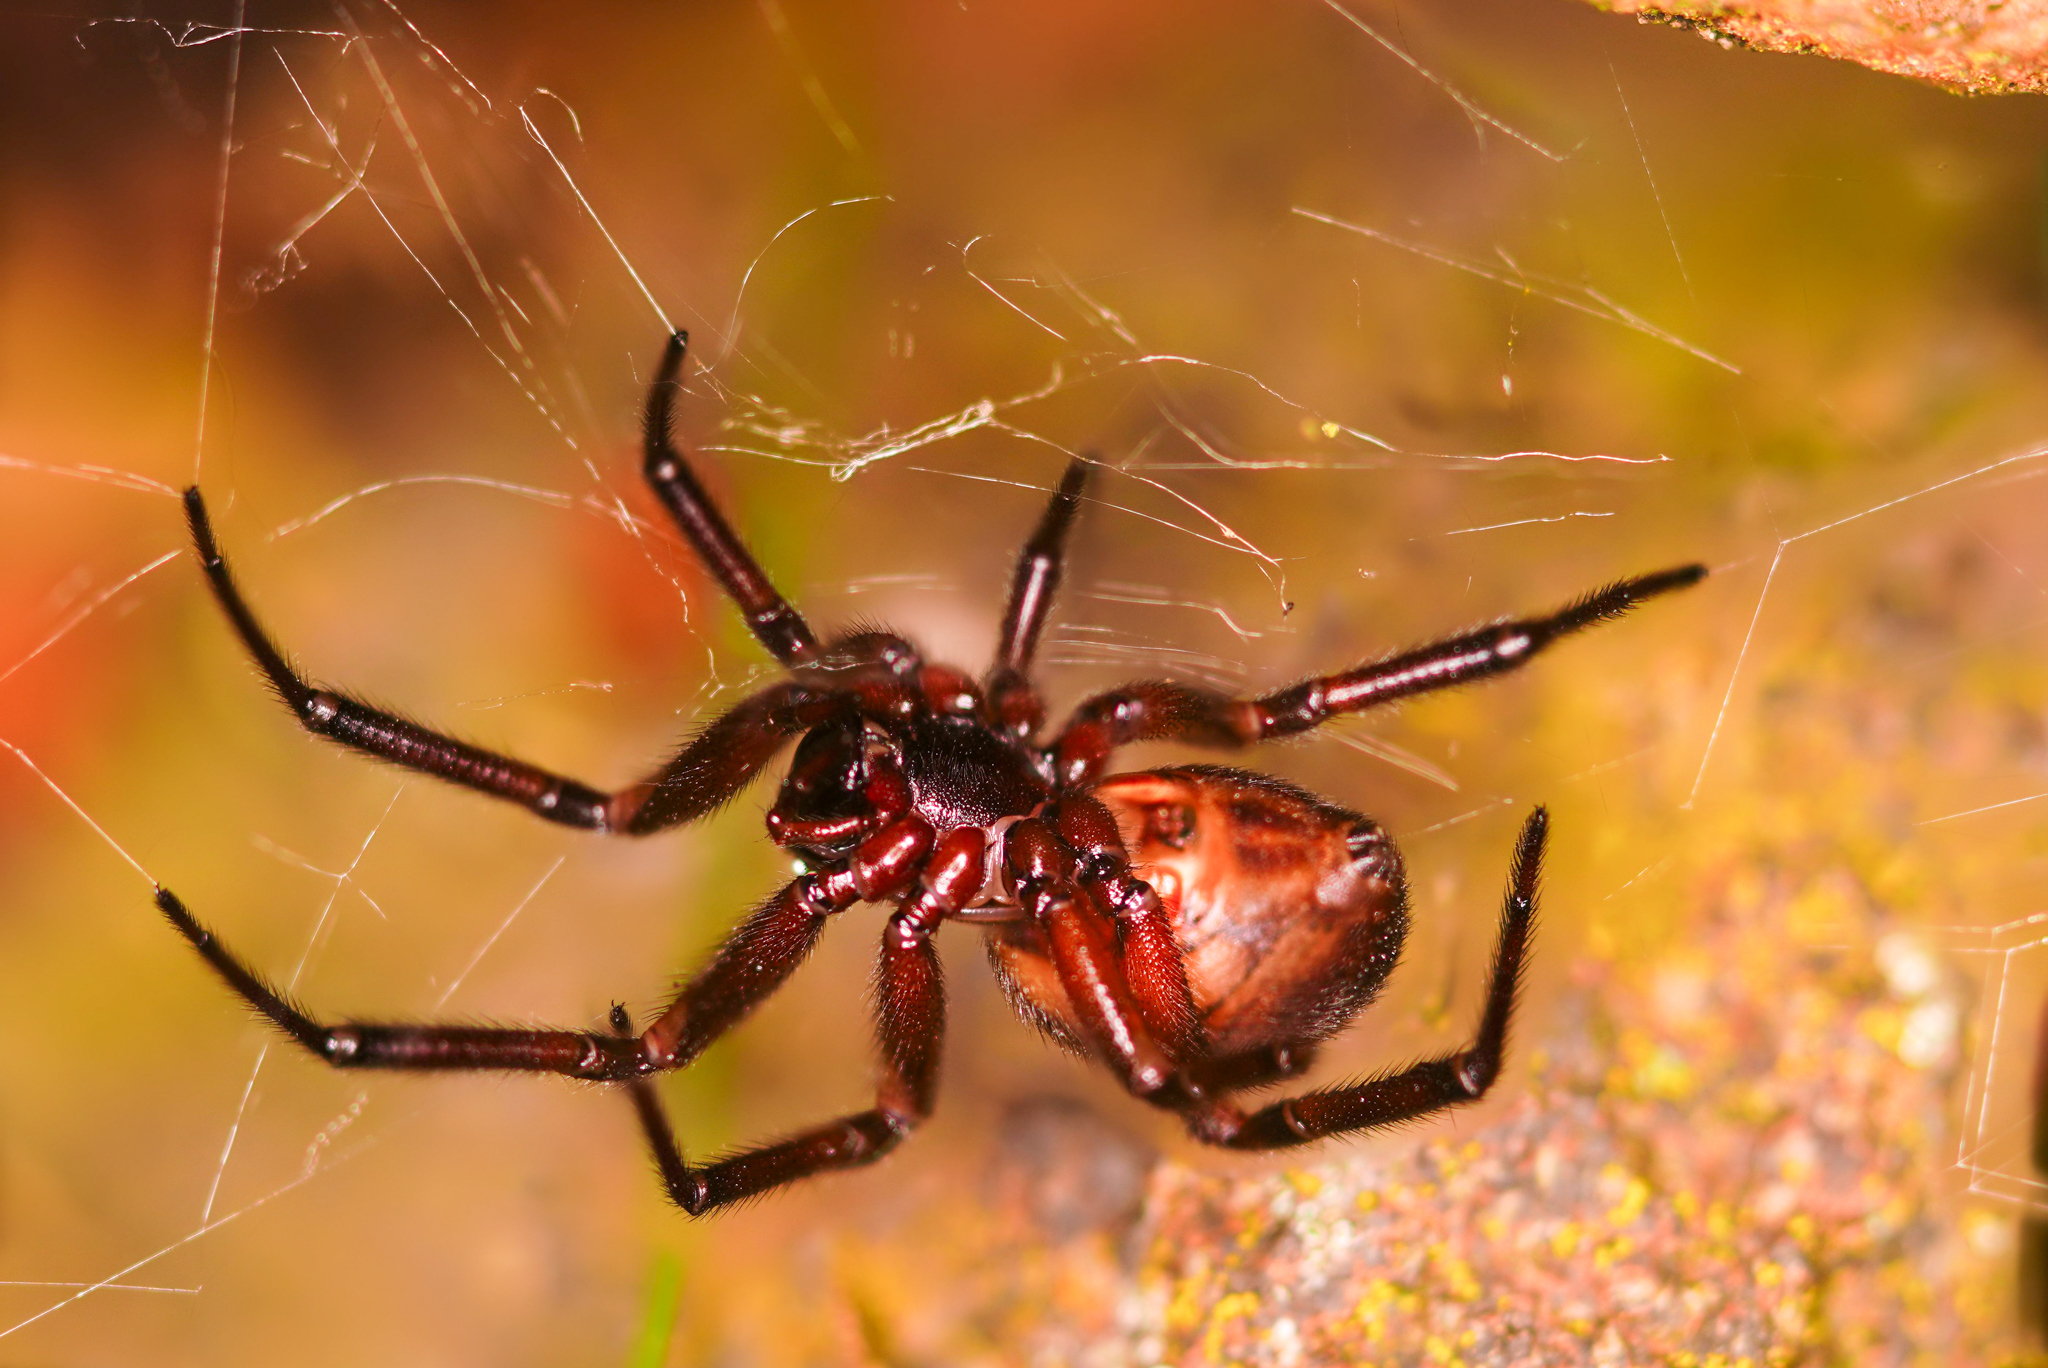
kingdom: Animalia
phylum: Arthropoda
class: Arachnida
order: Araneae
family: Theridiidae
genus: Steatoda
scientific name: Steatoda nobilis
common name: Cobweb weaver
